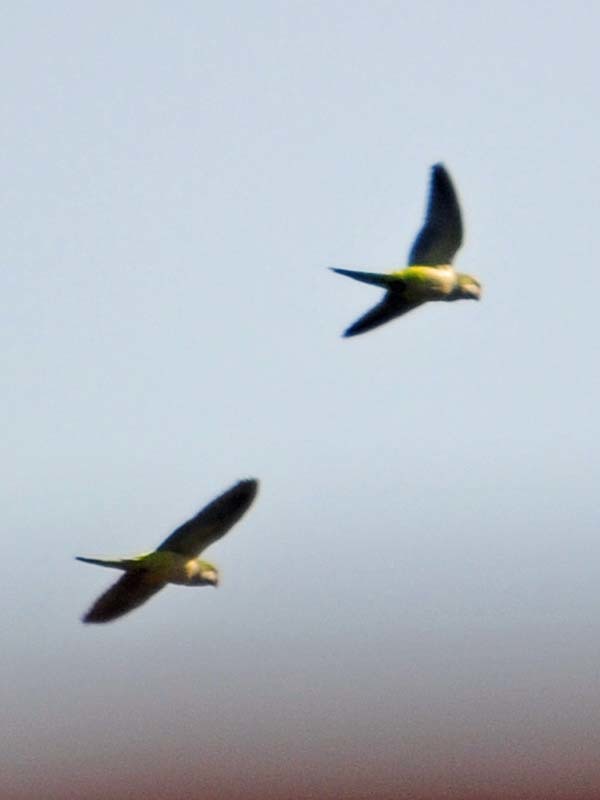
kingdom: Animalia
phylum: Chordata
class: Aves
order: Psittaciformes
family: Psittacidae
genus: Myiopsitta
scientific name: Myiopsitta monachus
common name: Monk parakeet
